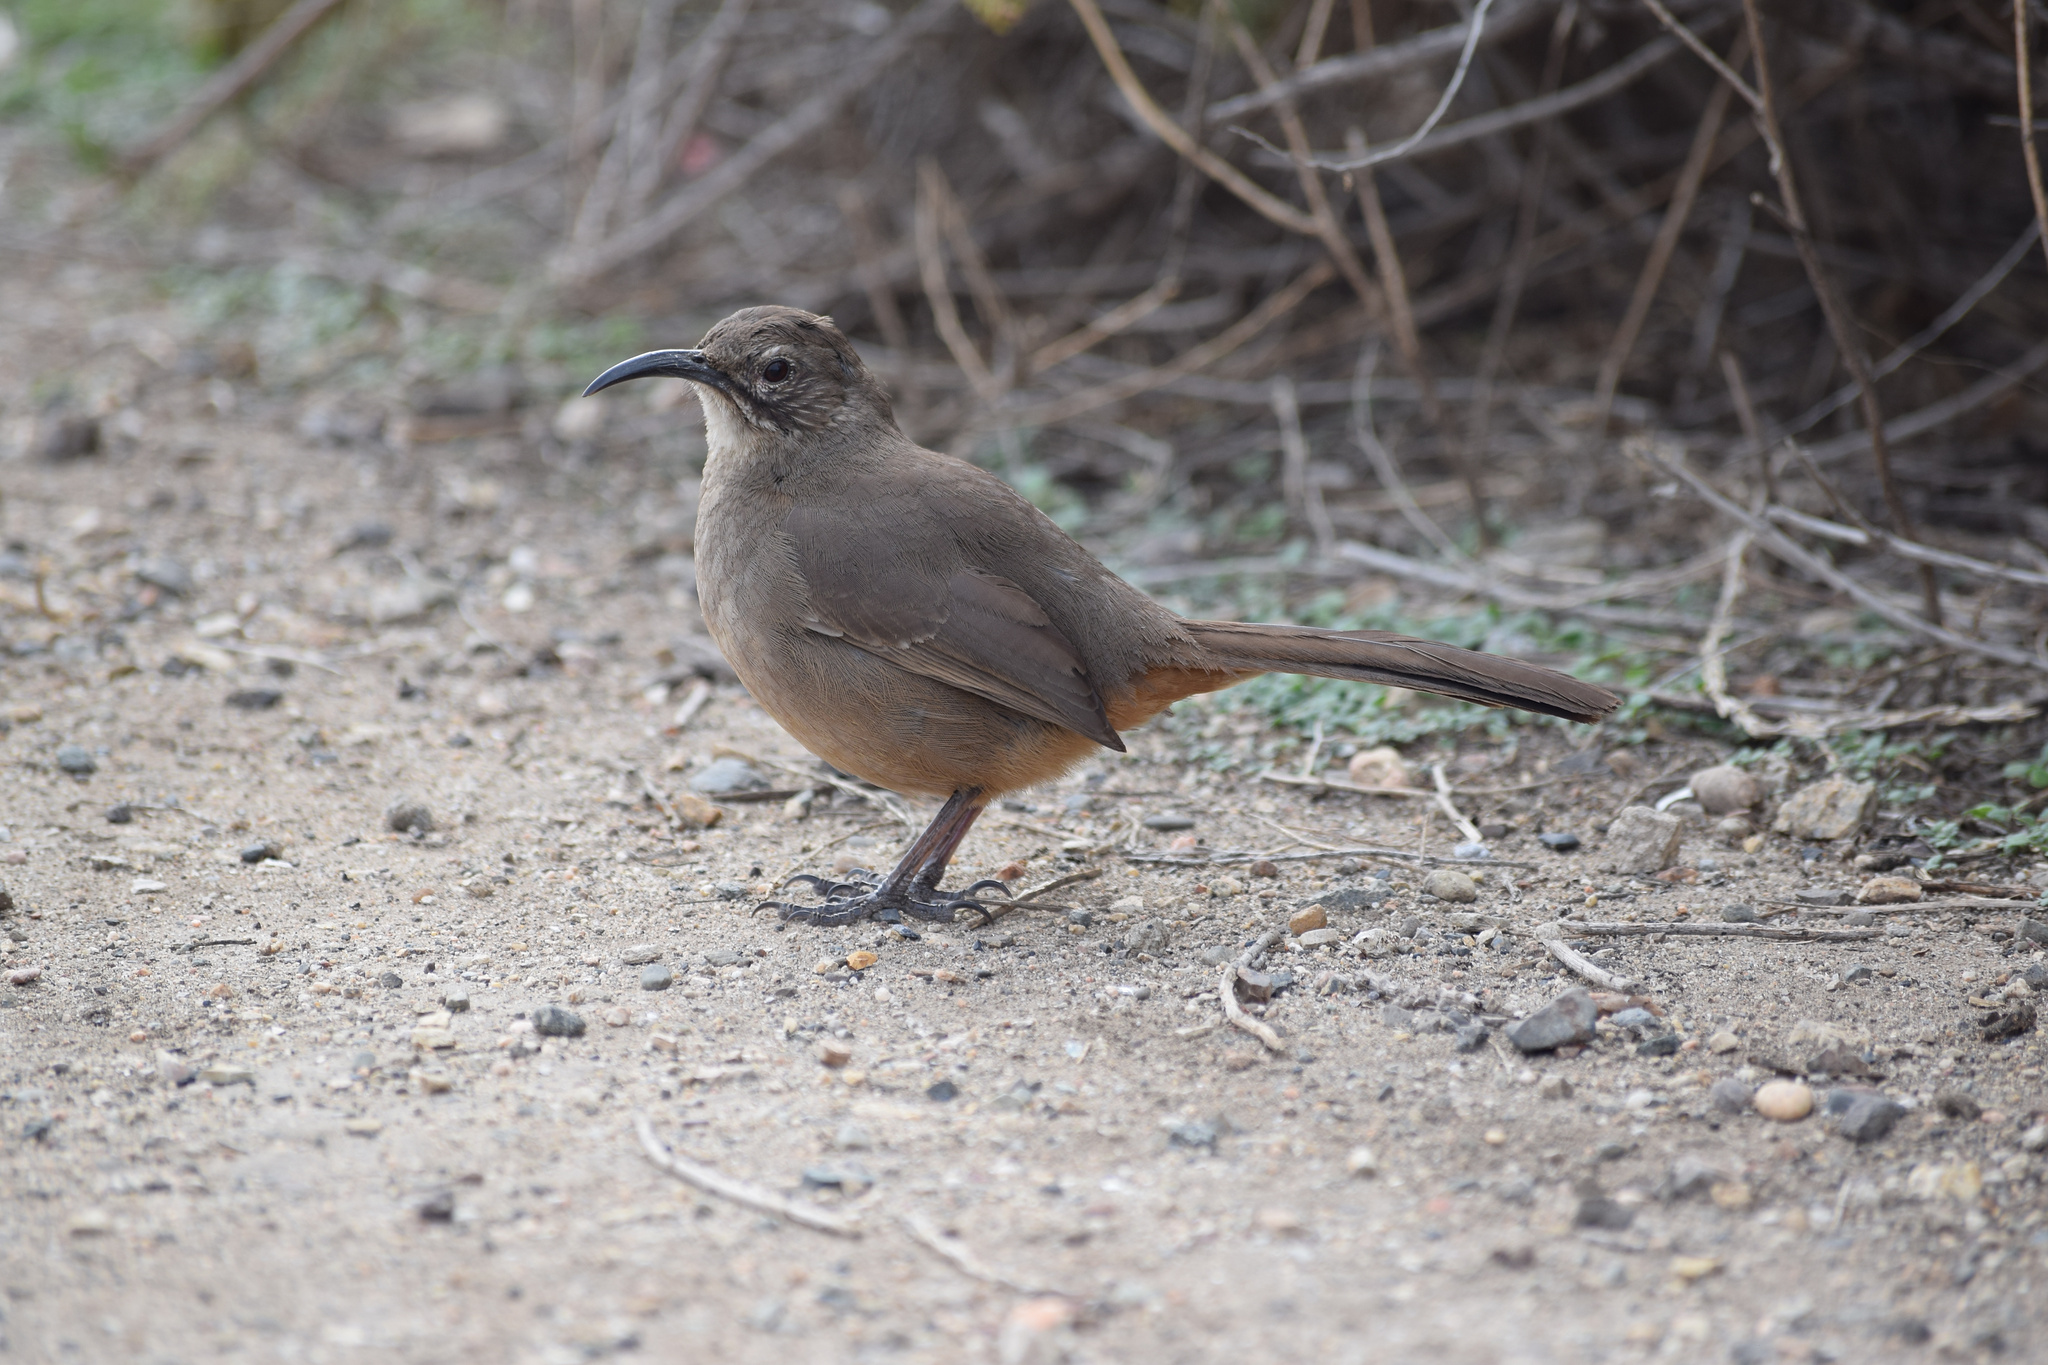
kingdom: Animalia
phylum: Chordata
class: Aves
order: Passeriformes
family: Mimidae
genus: Toxostoma
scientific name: Toxostoma redivivum
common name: California thrasher
